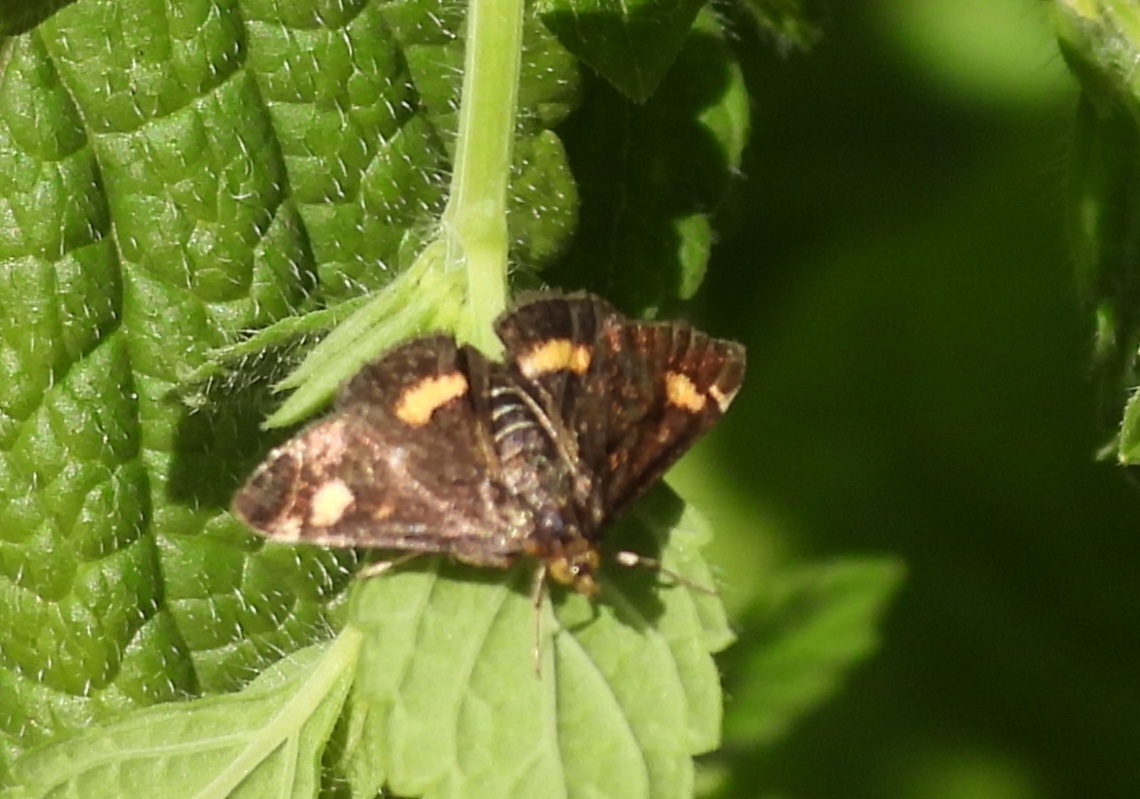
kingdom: Animalia
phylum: Arthropoda
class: Insecta
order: Lepidoptera
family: Crambidae
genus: Pyrausta
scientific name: Pyrausta aurata
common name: Small purple & gold
